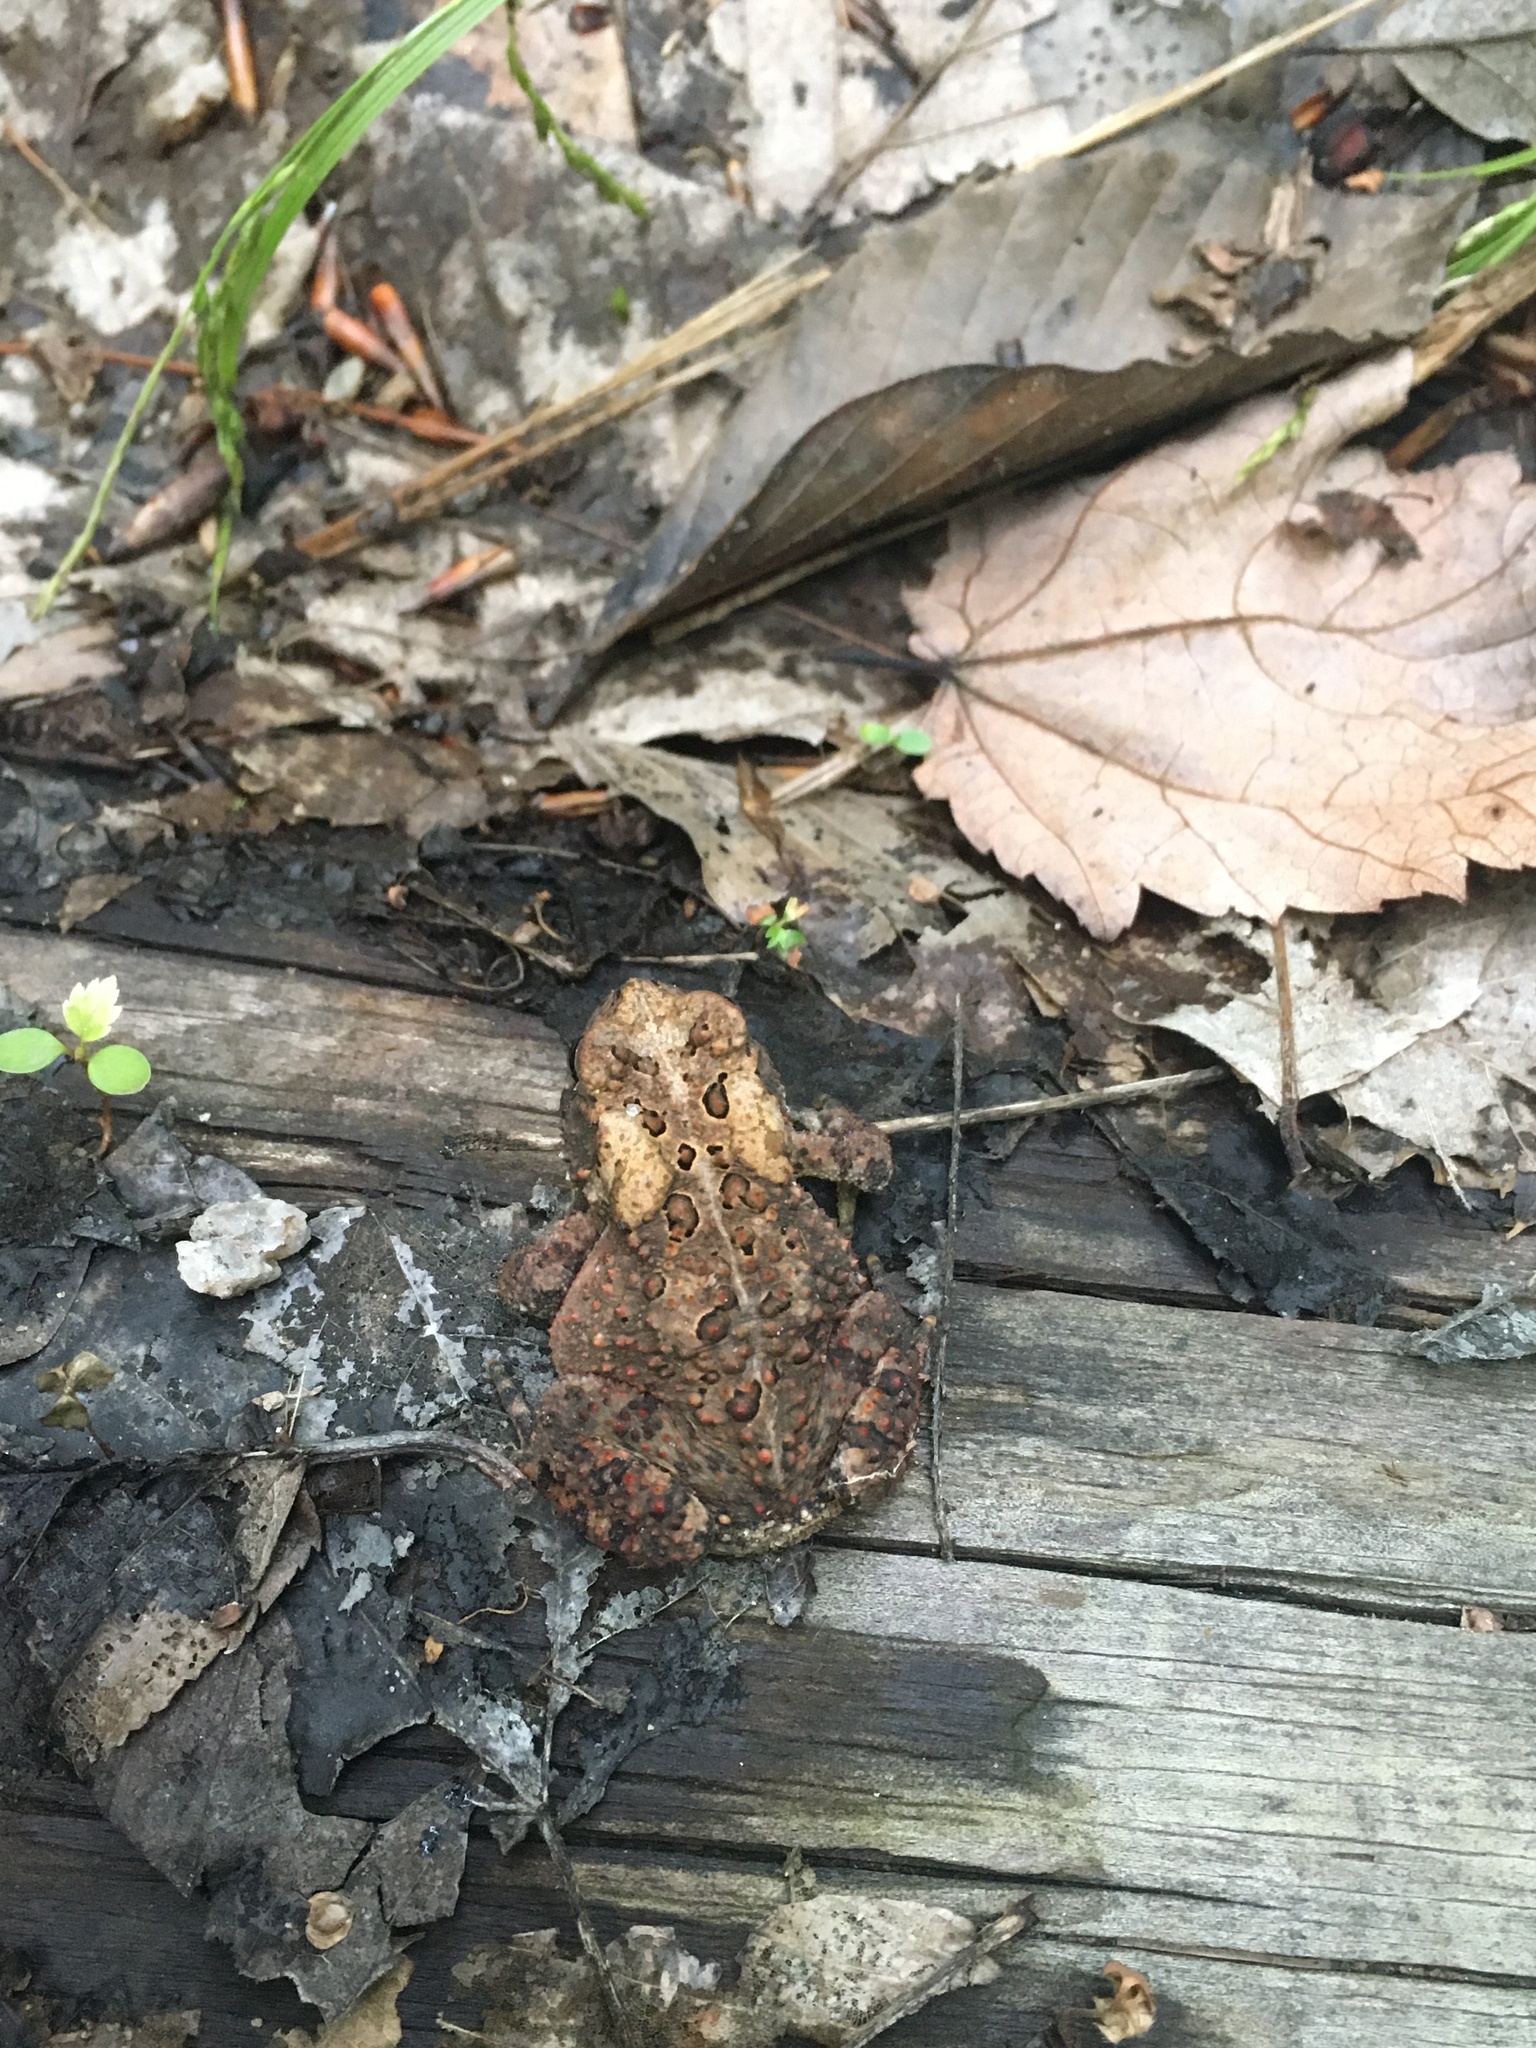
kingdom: Animalia
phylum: Chordata
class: Amphibia
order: Anura
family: Bufonidae
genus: Anaxyrus
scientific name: Anaxyrus americanus
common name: American toad
